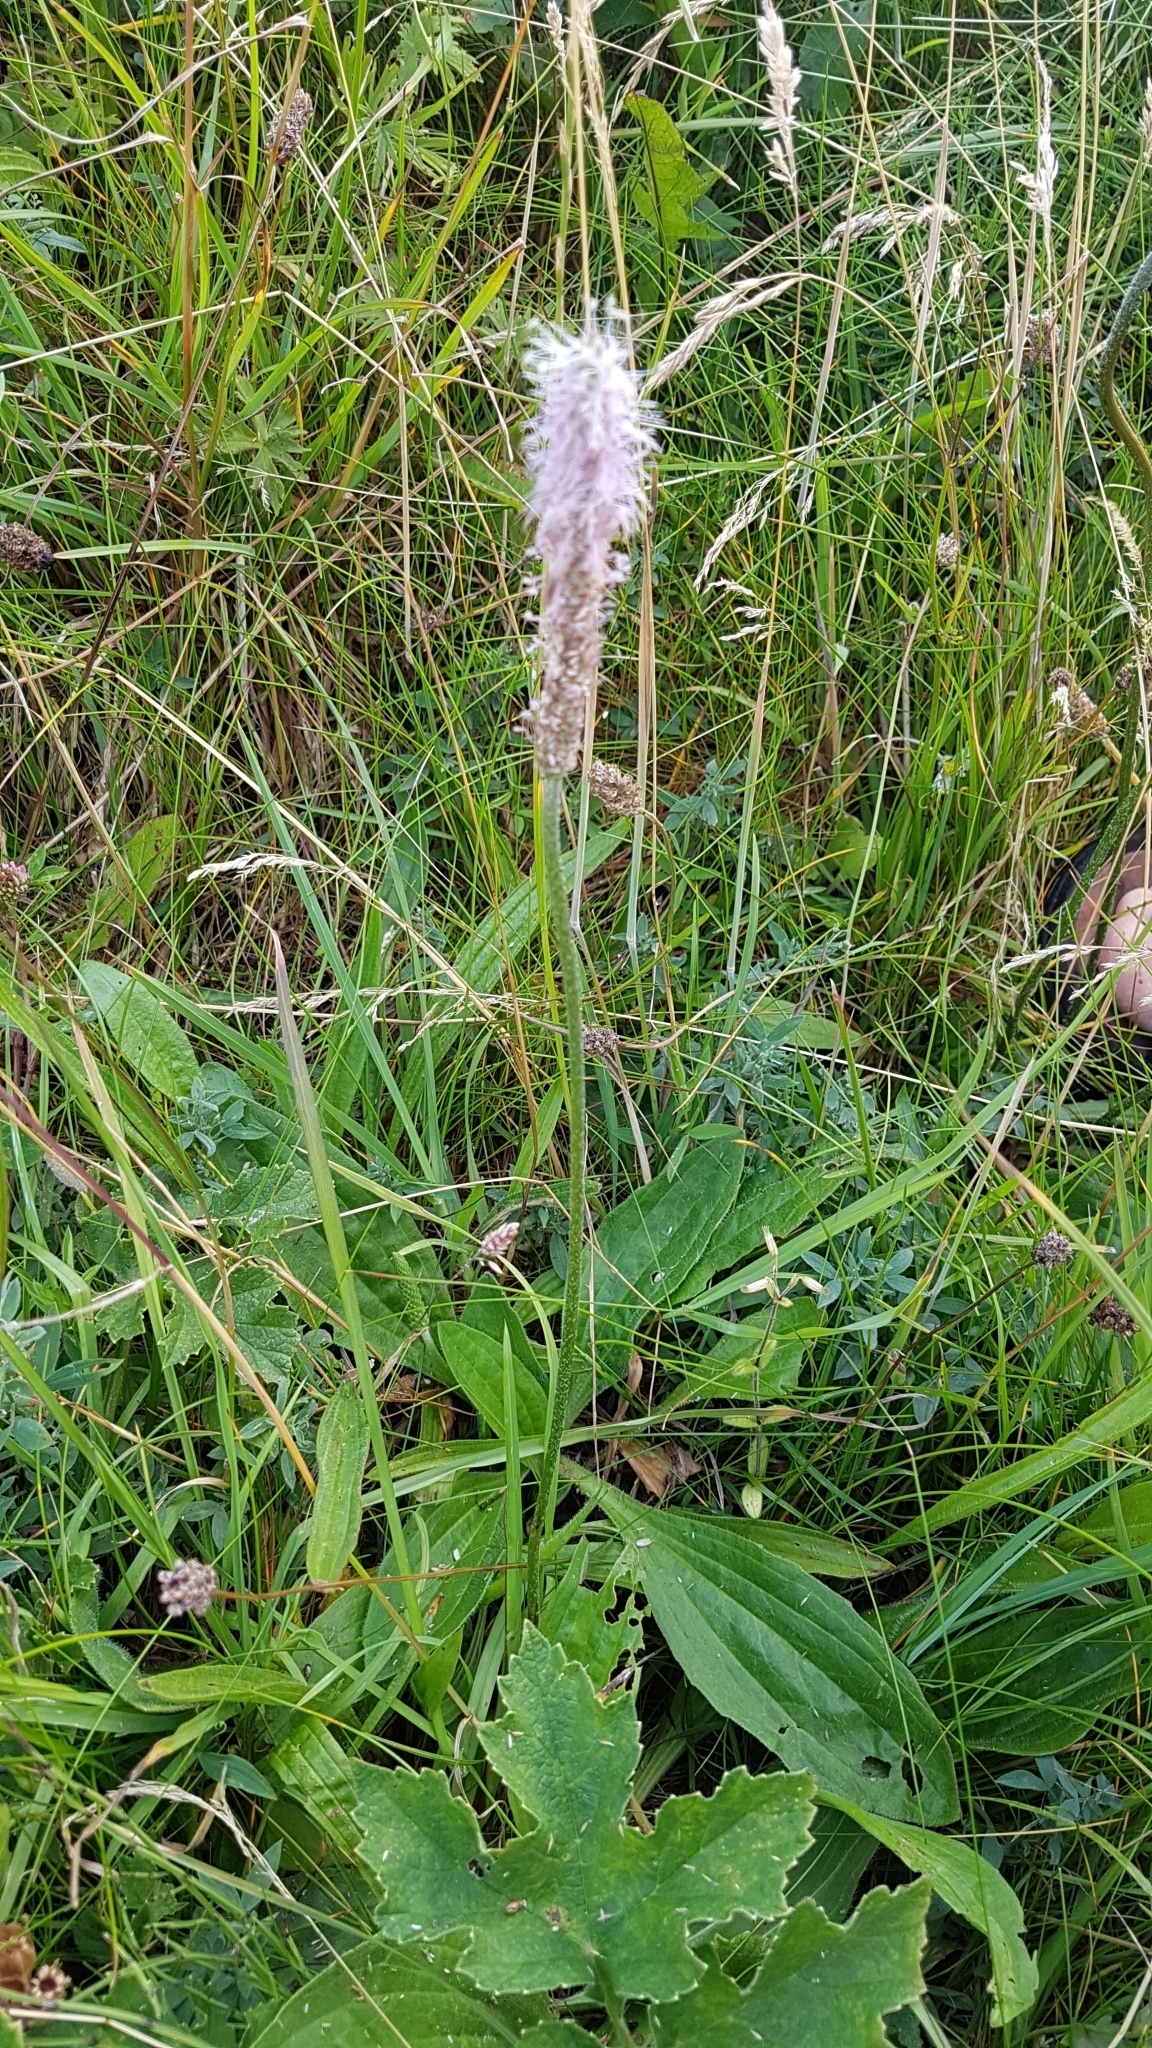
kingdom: Plantae
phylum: Tracheophyta
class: Magnoliopsida
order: Lamiales
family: Plantaginaceae
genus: Plantago
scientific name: Plantago media
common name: Hoary plantain
